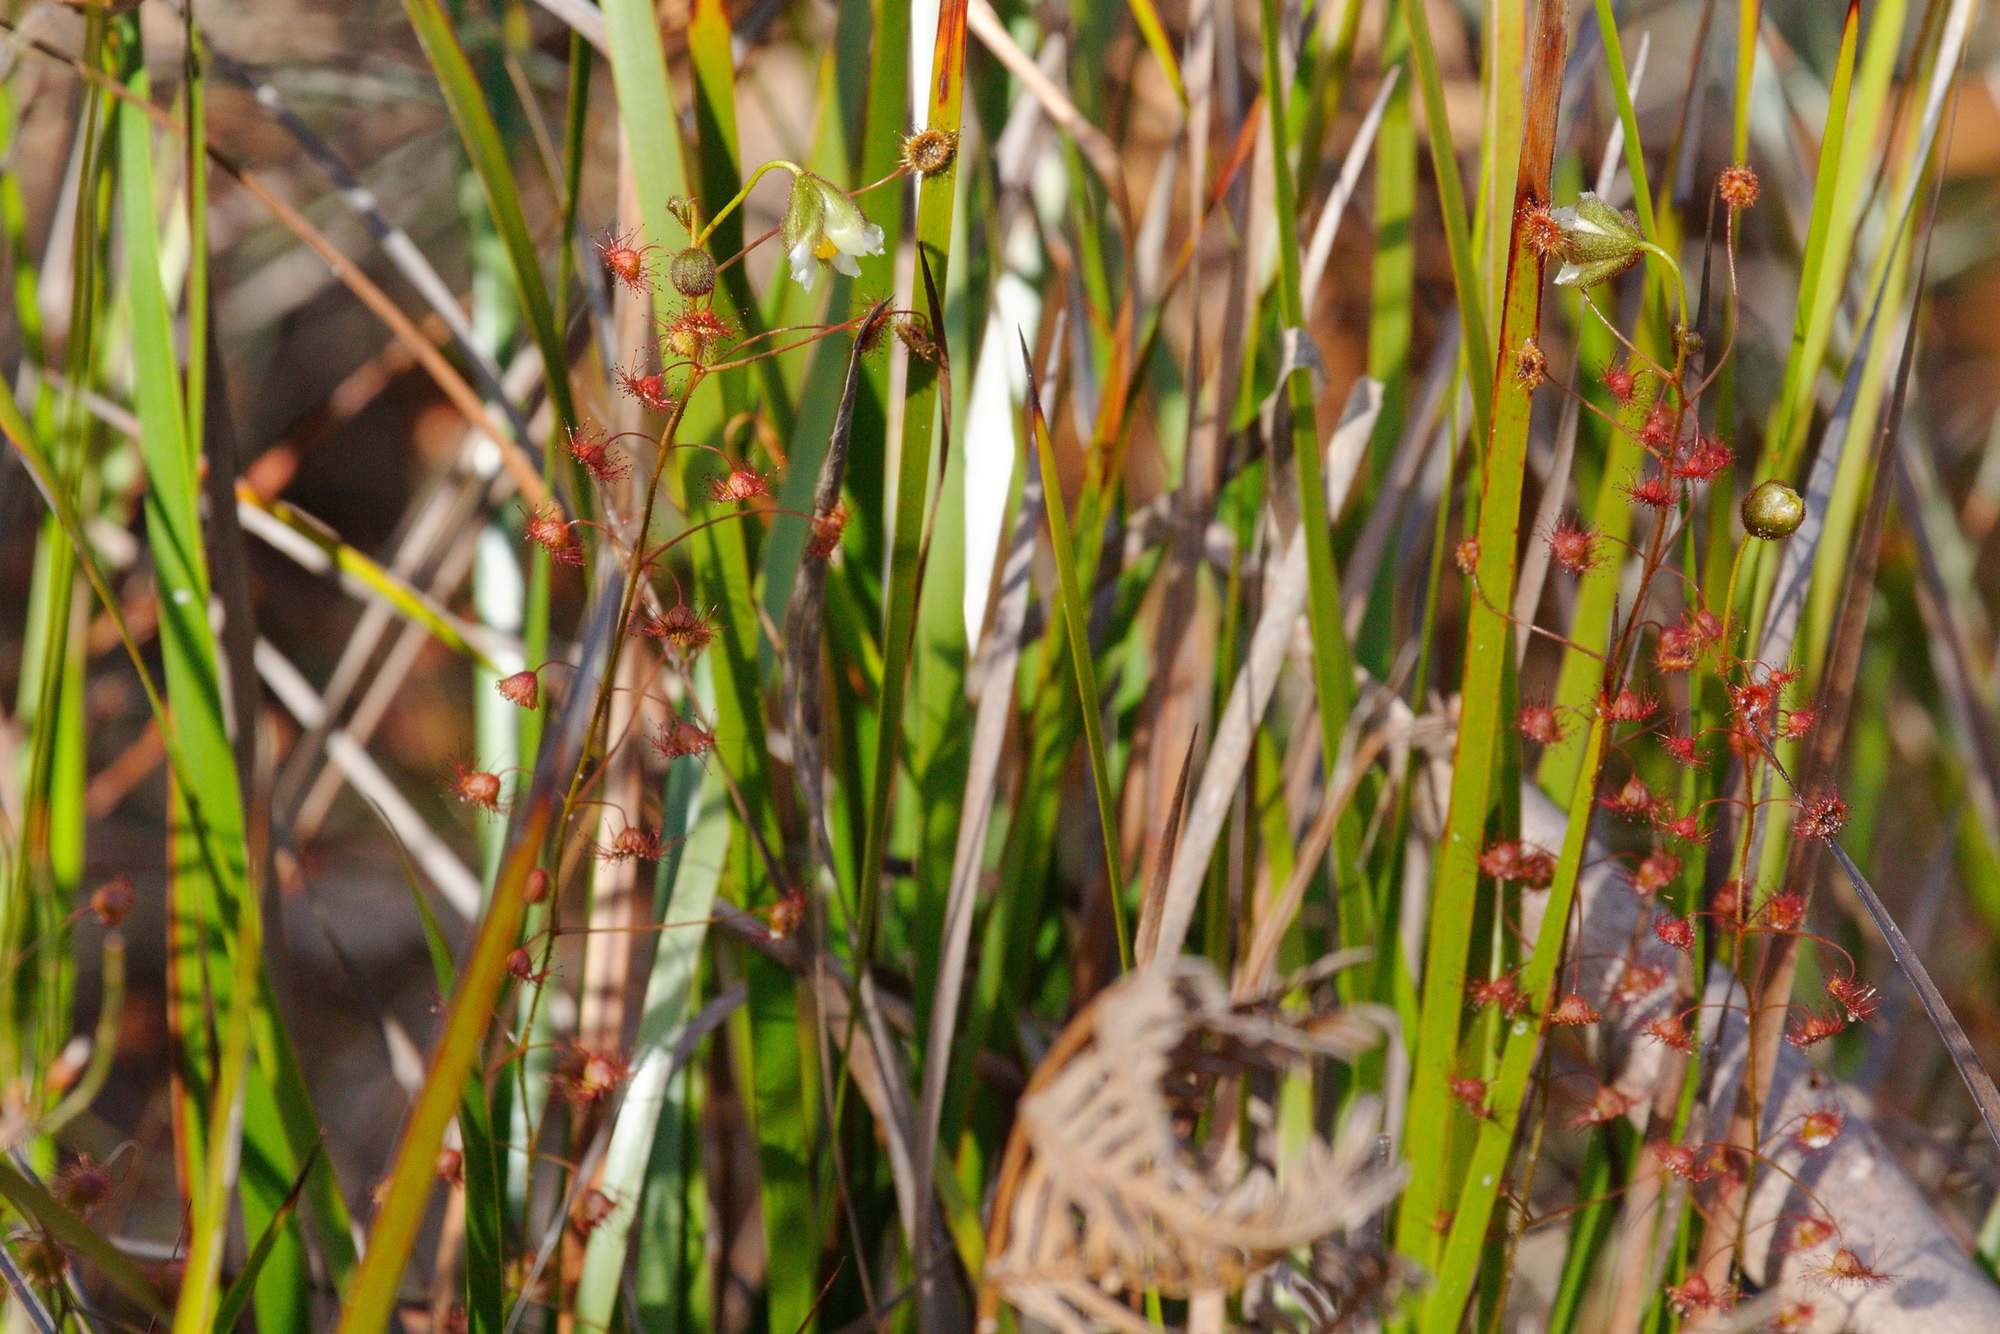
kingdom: Plantae
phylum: Tracheophyta
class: Magnoliopsida
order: Caryophyllales
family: Droseraceae
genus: Drosera
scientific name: Drosera planchonii
